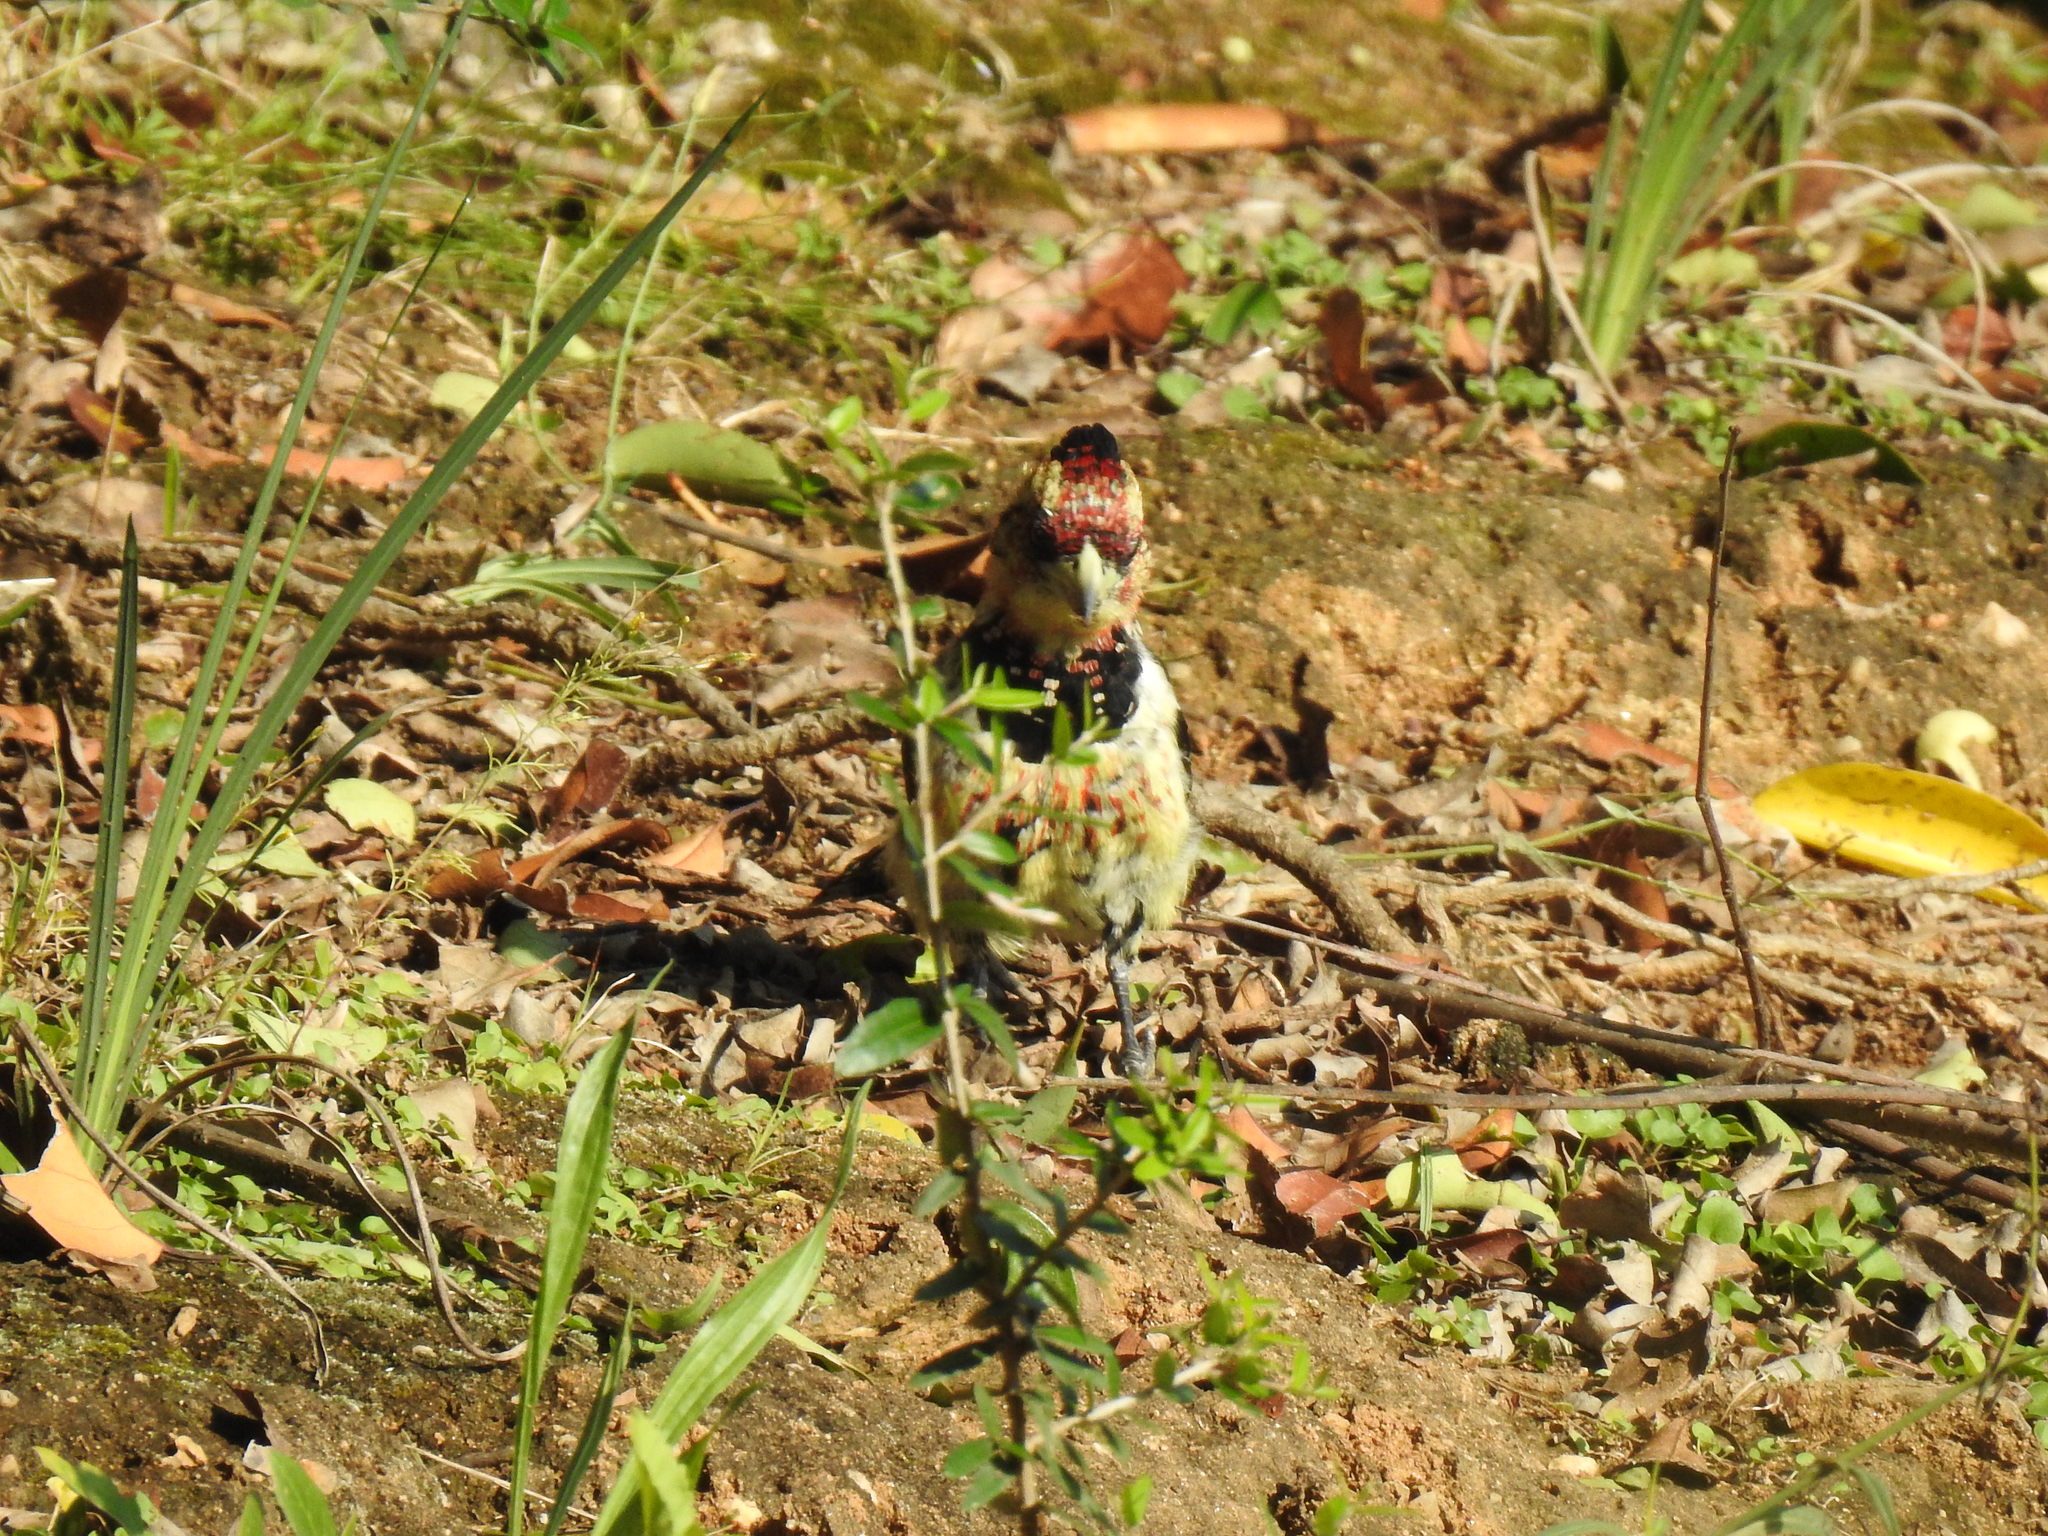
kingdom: Animalia
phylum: Chordata
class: Aves
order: Piciformes
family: Lybiidae
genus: Trachyphonus
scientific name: Trachyphonus vaillantii
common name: Crested barbet
